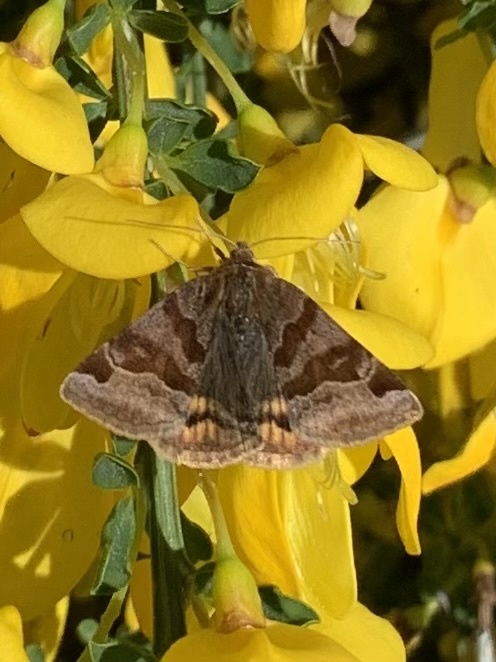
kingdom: Animalia
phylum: Arthropoda
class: Insecta
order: Lepidoptera
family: Erebidae
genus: Euclidia
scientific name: Euclidia glyphica
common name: Burnet companion
